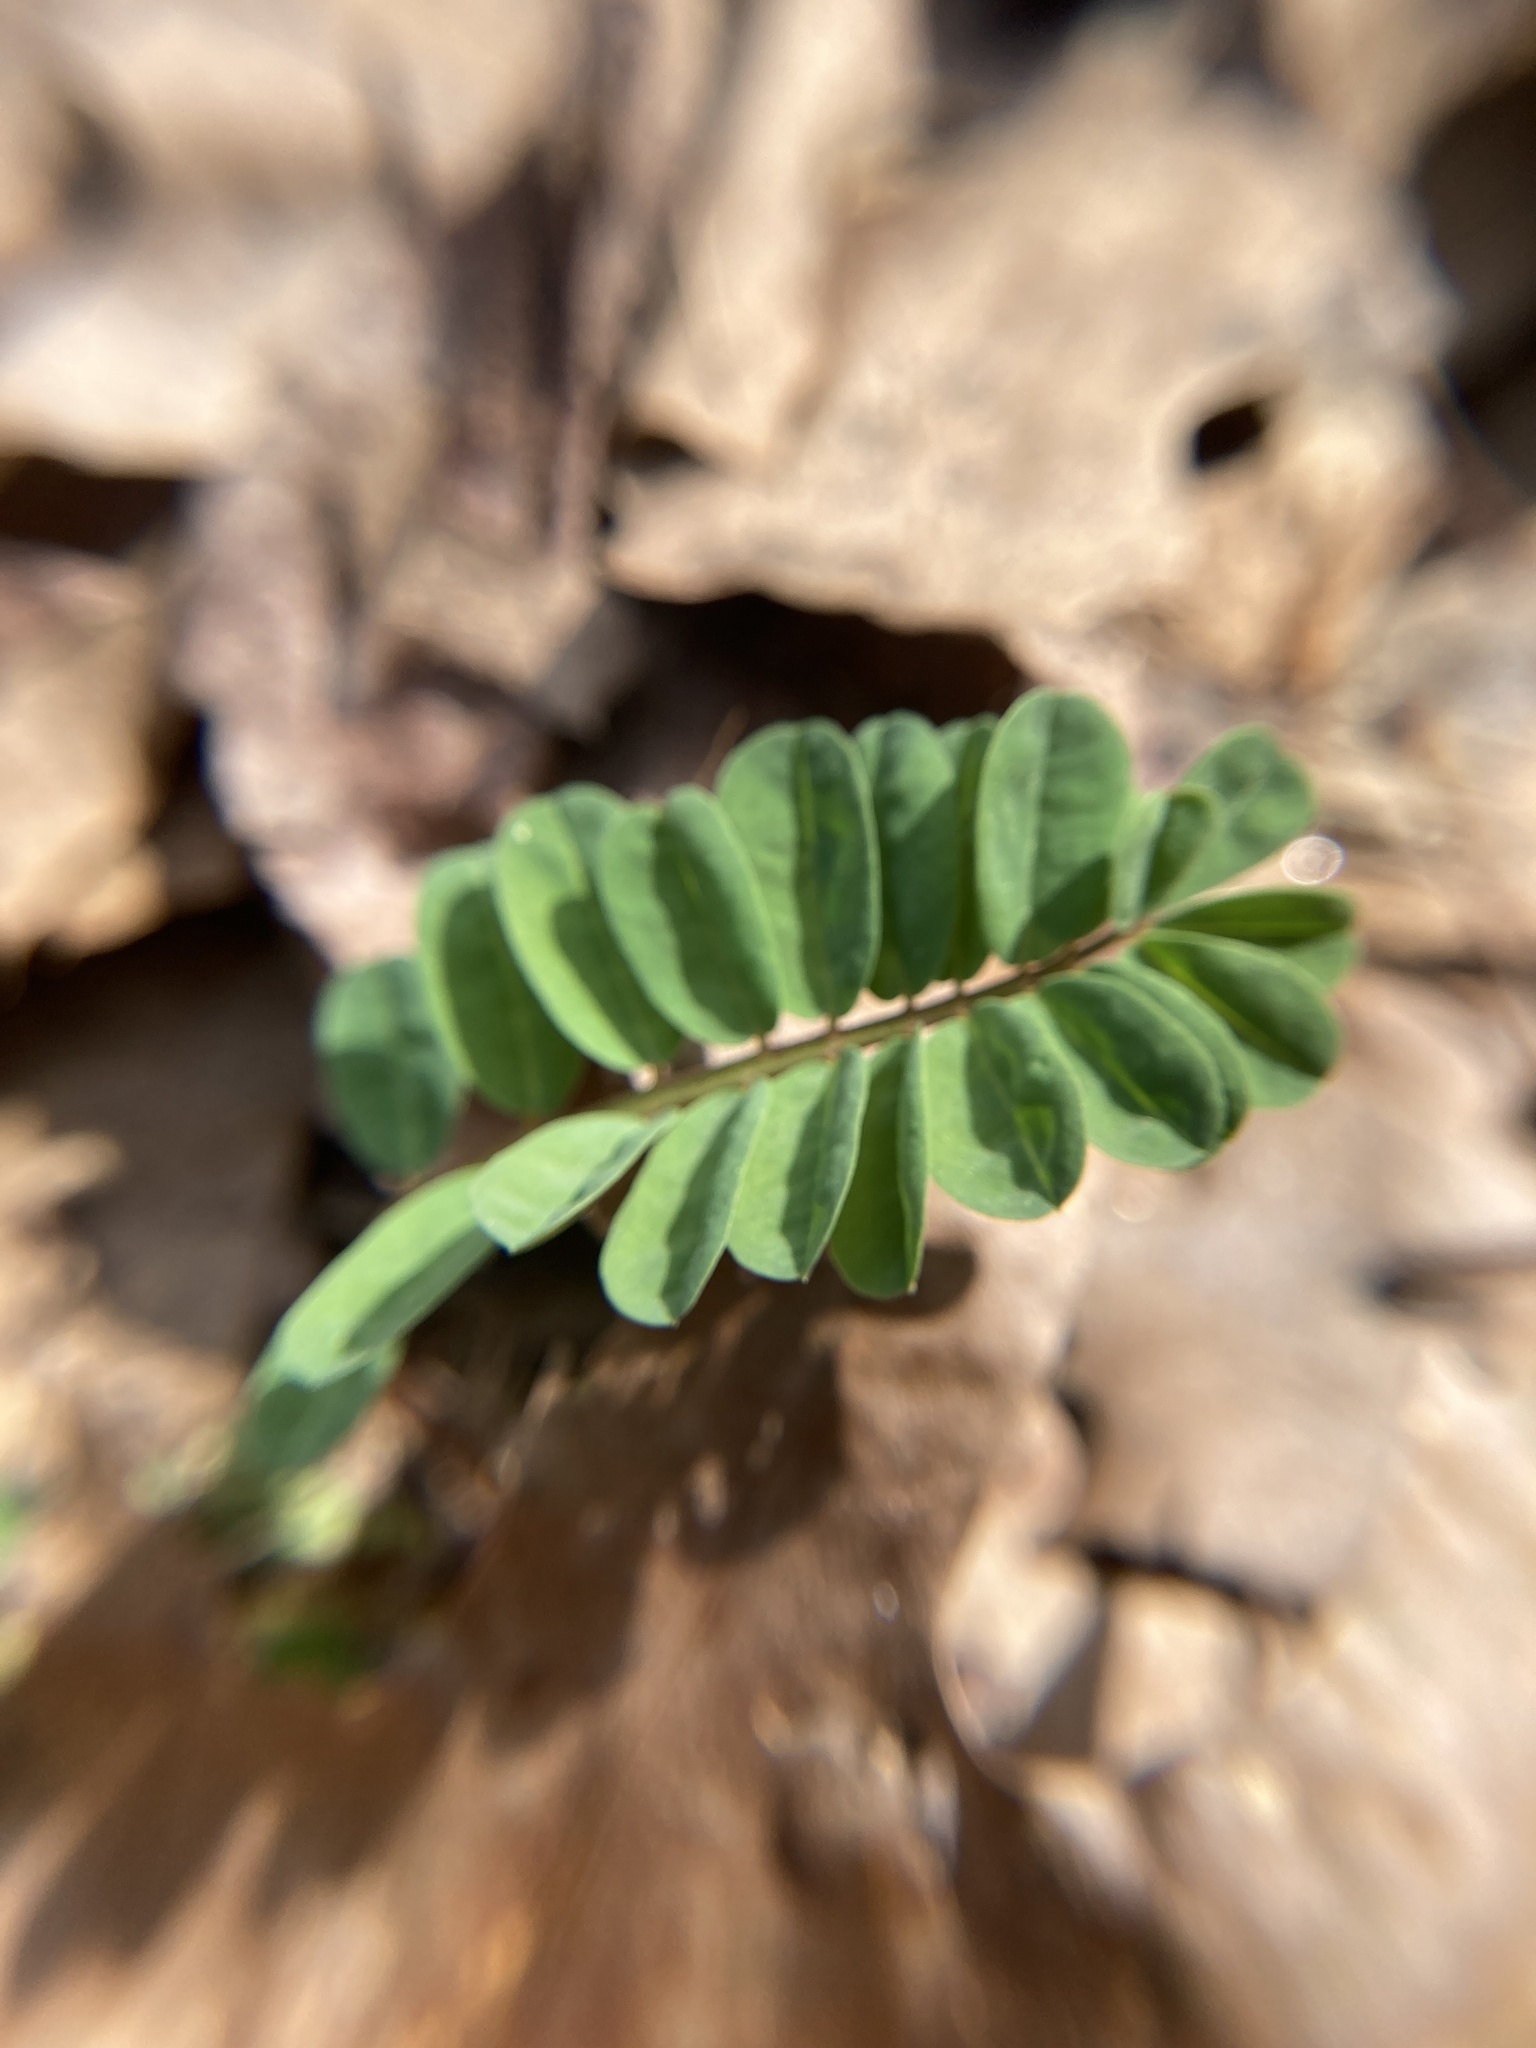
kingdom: Plantae
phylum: Tracheophyta
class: Magnoliopsida
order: Fabales
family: Fabaceae
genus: Coronilla
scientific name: Coronilla varia
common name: Crownvetch
